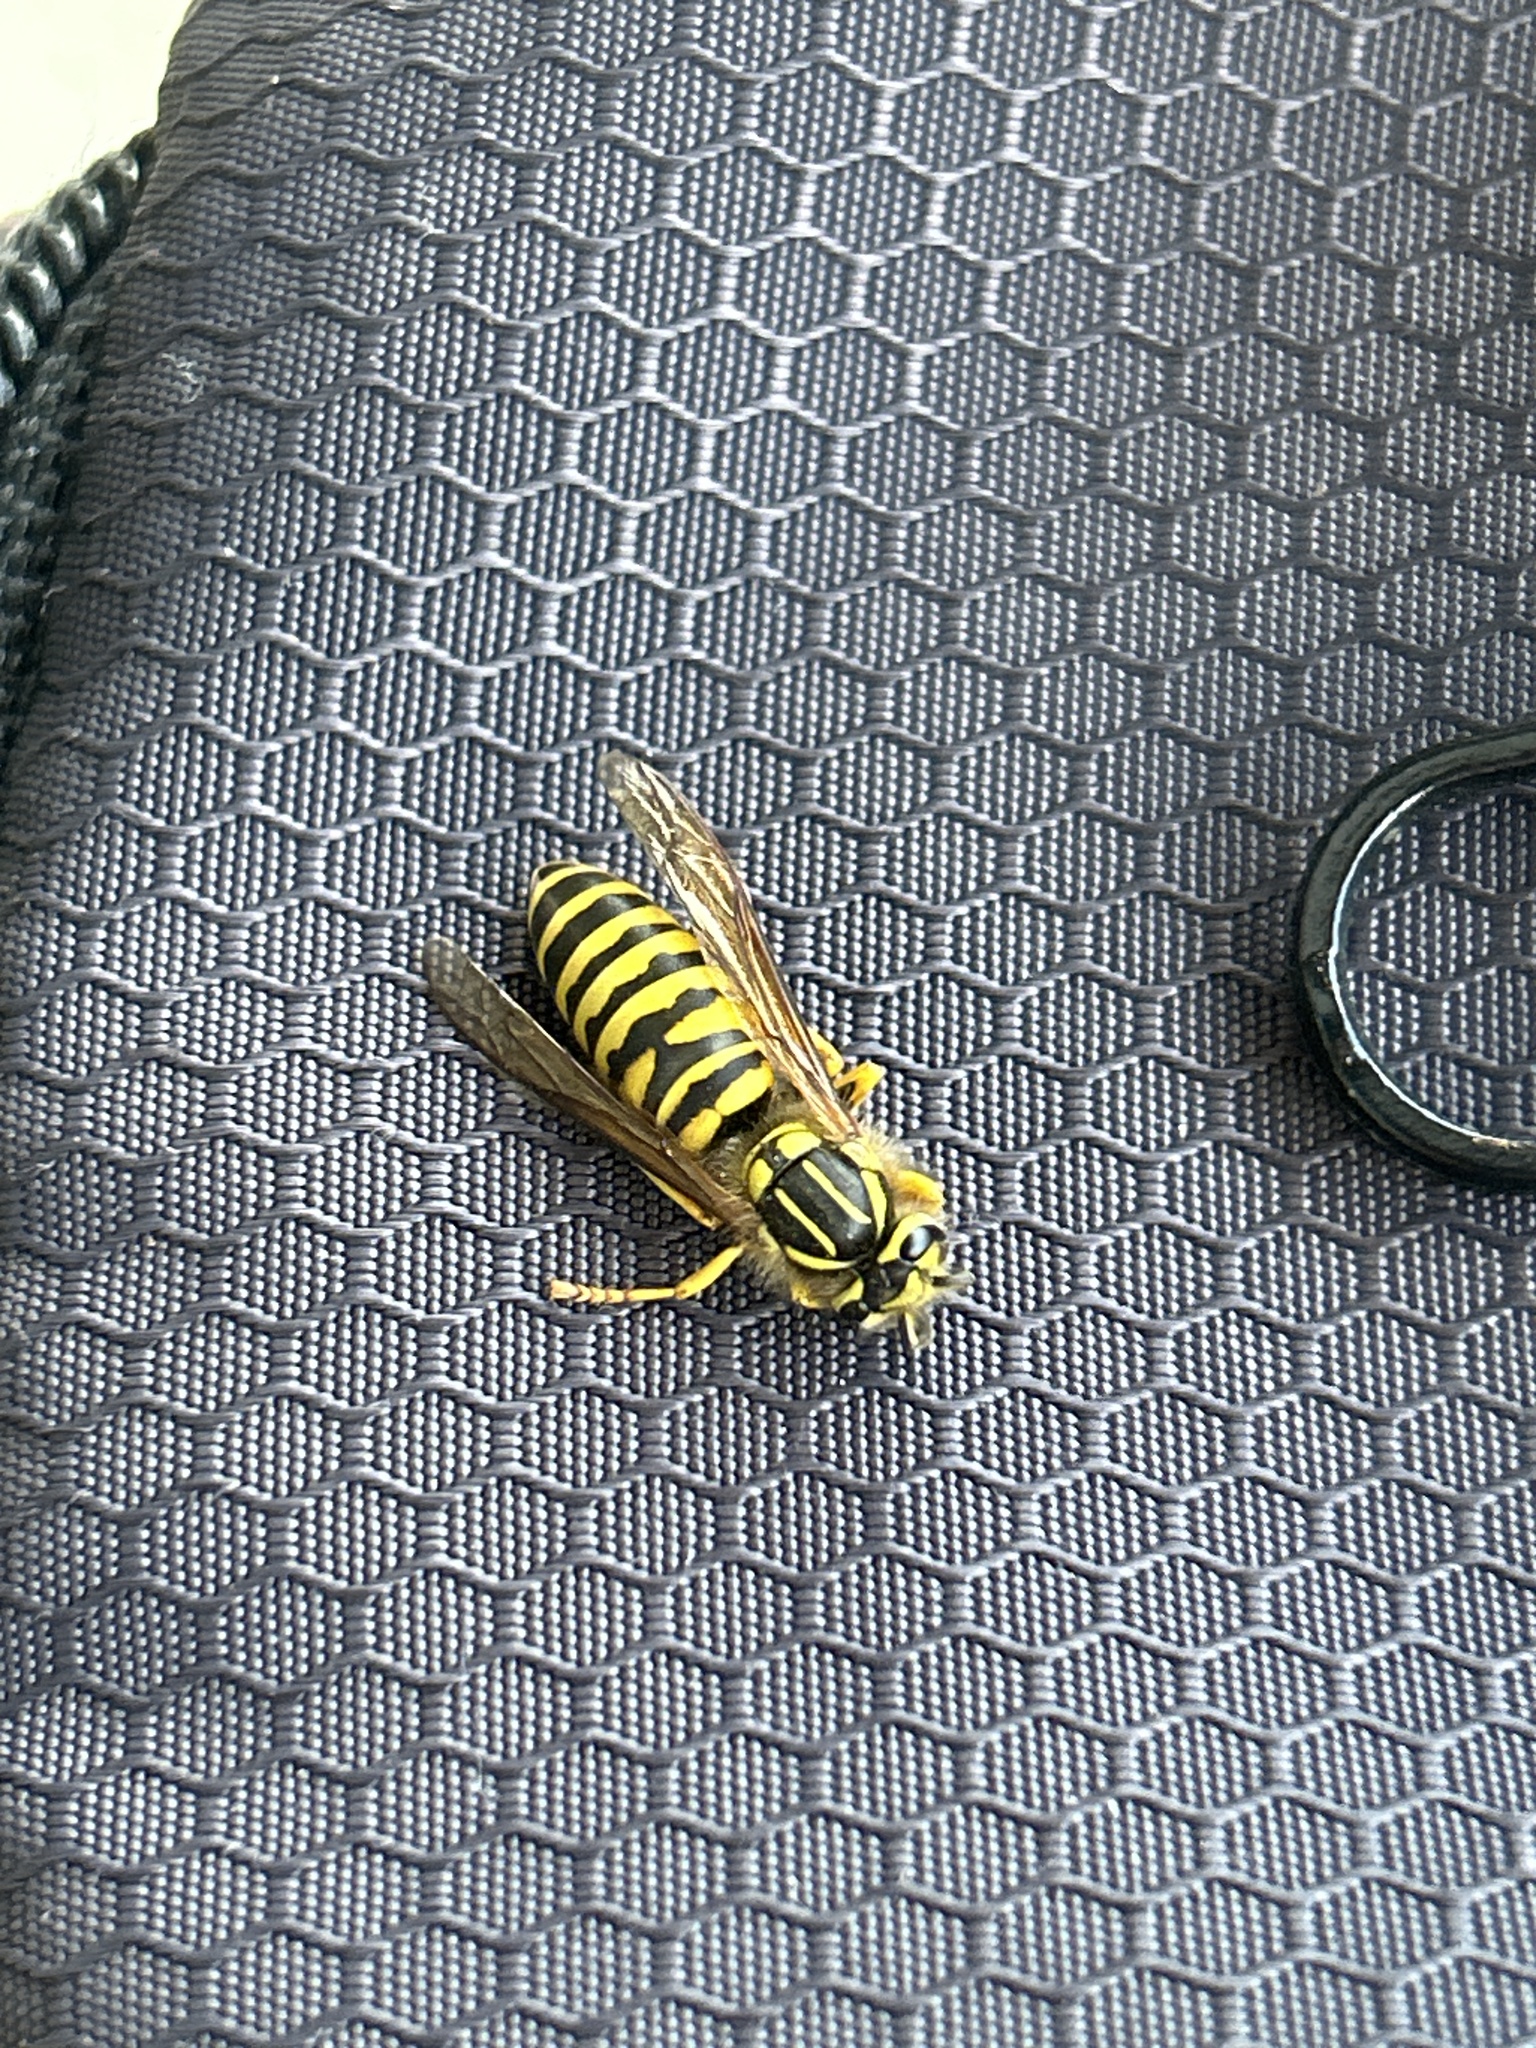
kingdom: Animalia
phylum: Arthropoda
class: Insecta
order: Hymenoptera
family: Vespidae
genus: Vespula
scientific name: Vespula squamosa
